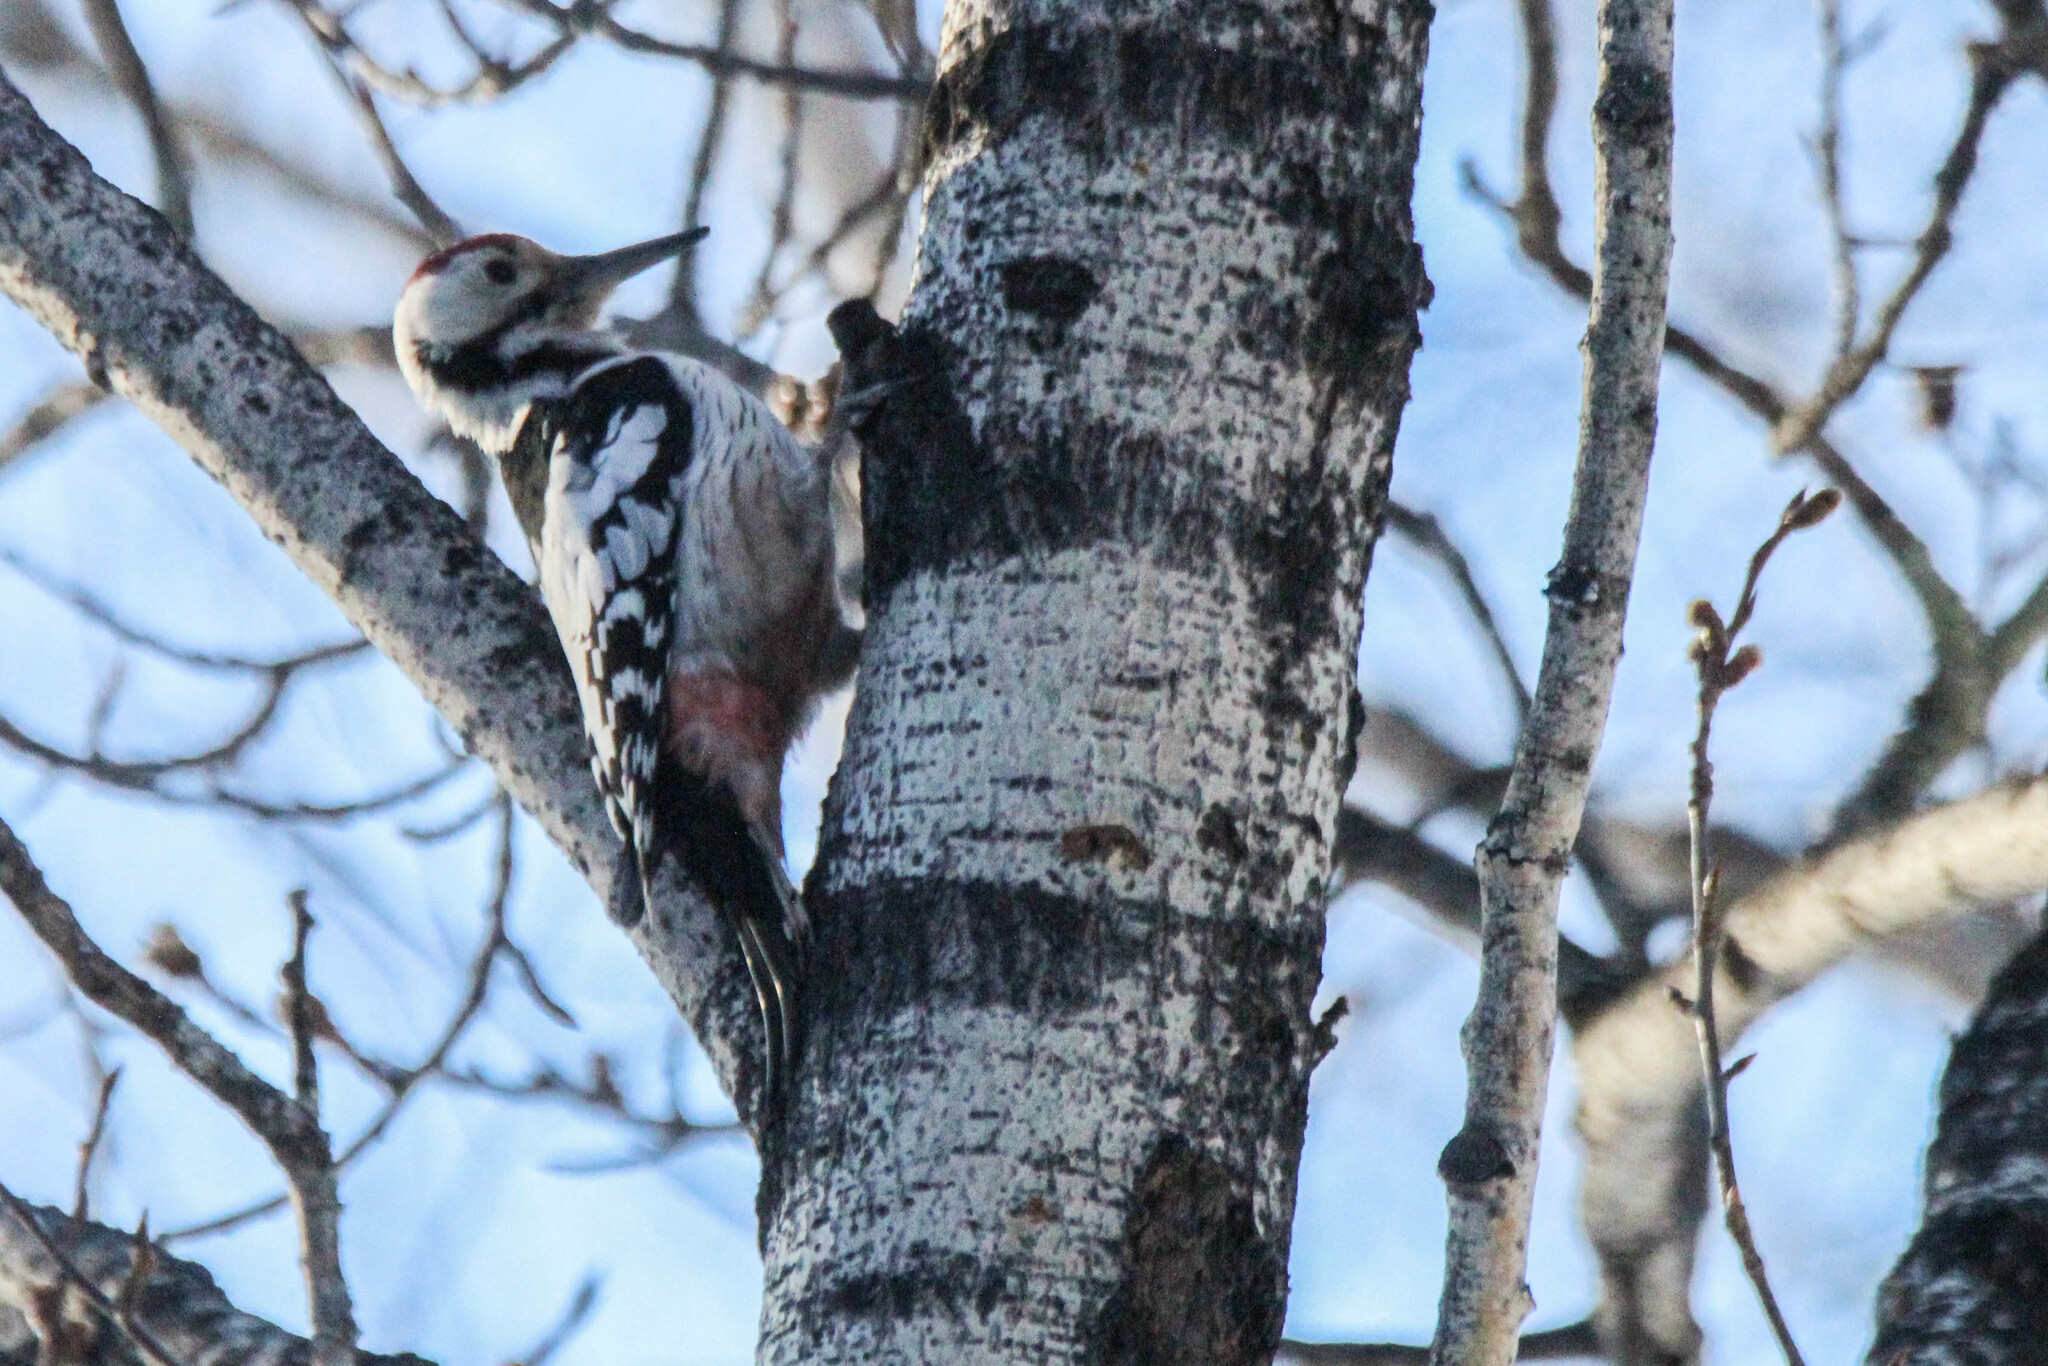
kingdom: Animalia
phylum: Chordata
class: Aves
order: Piciformes
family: Picidae
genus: Dendrocopos
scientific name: Dendrocopos leucotos
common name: White-backed woodpecker
